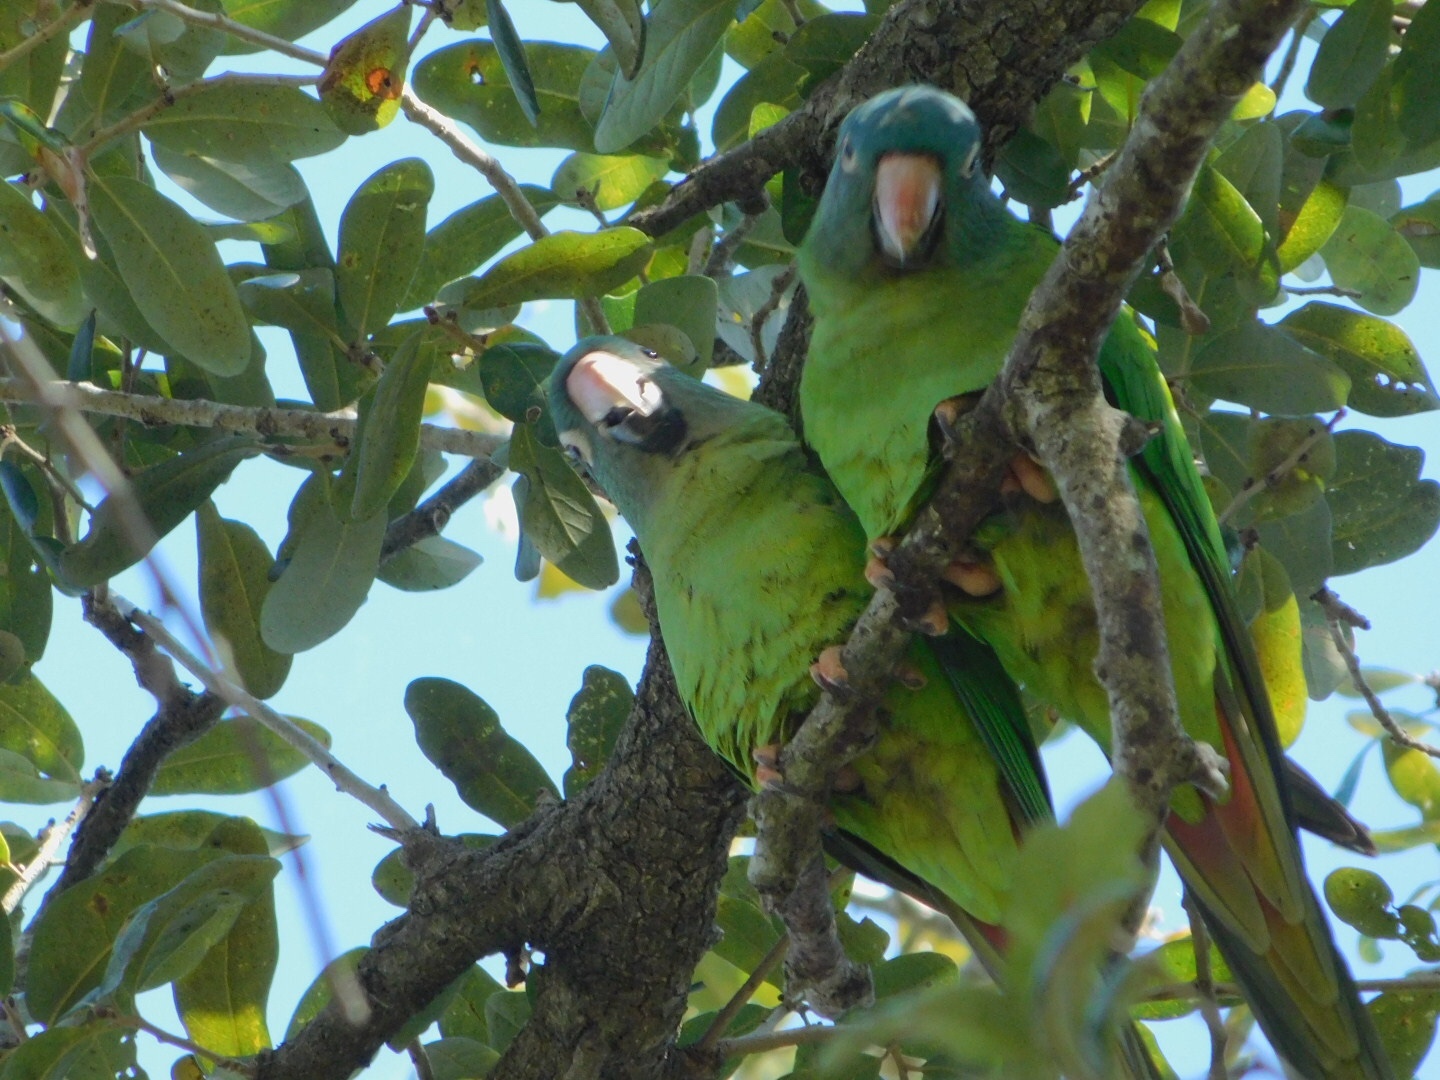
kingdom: Animalia
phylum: Chordata
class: Aves
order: Psittaciformes
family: Psittacidae
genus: Aratinga
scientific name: Aratinga acuticaudata
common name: Blue-crowned parakeet
